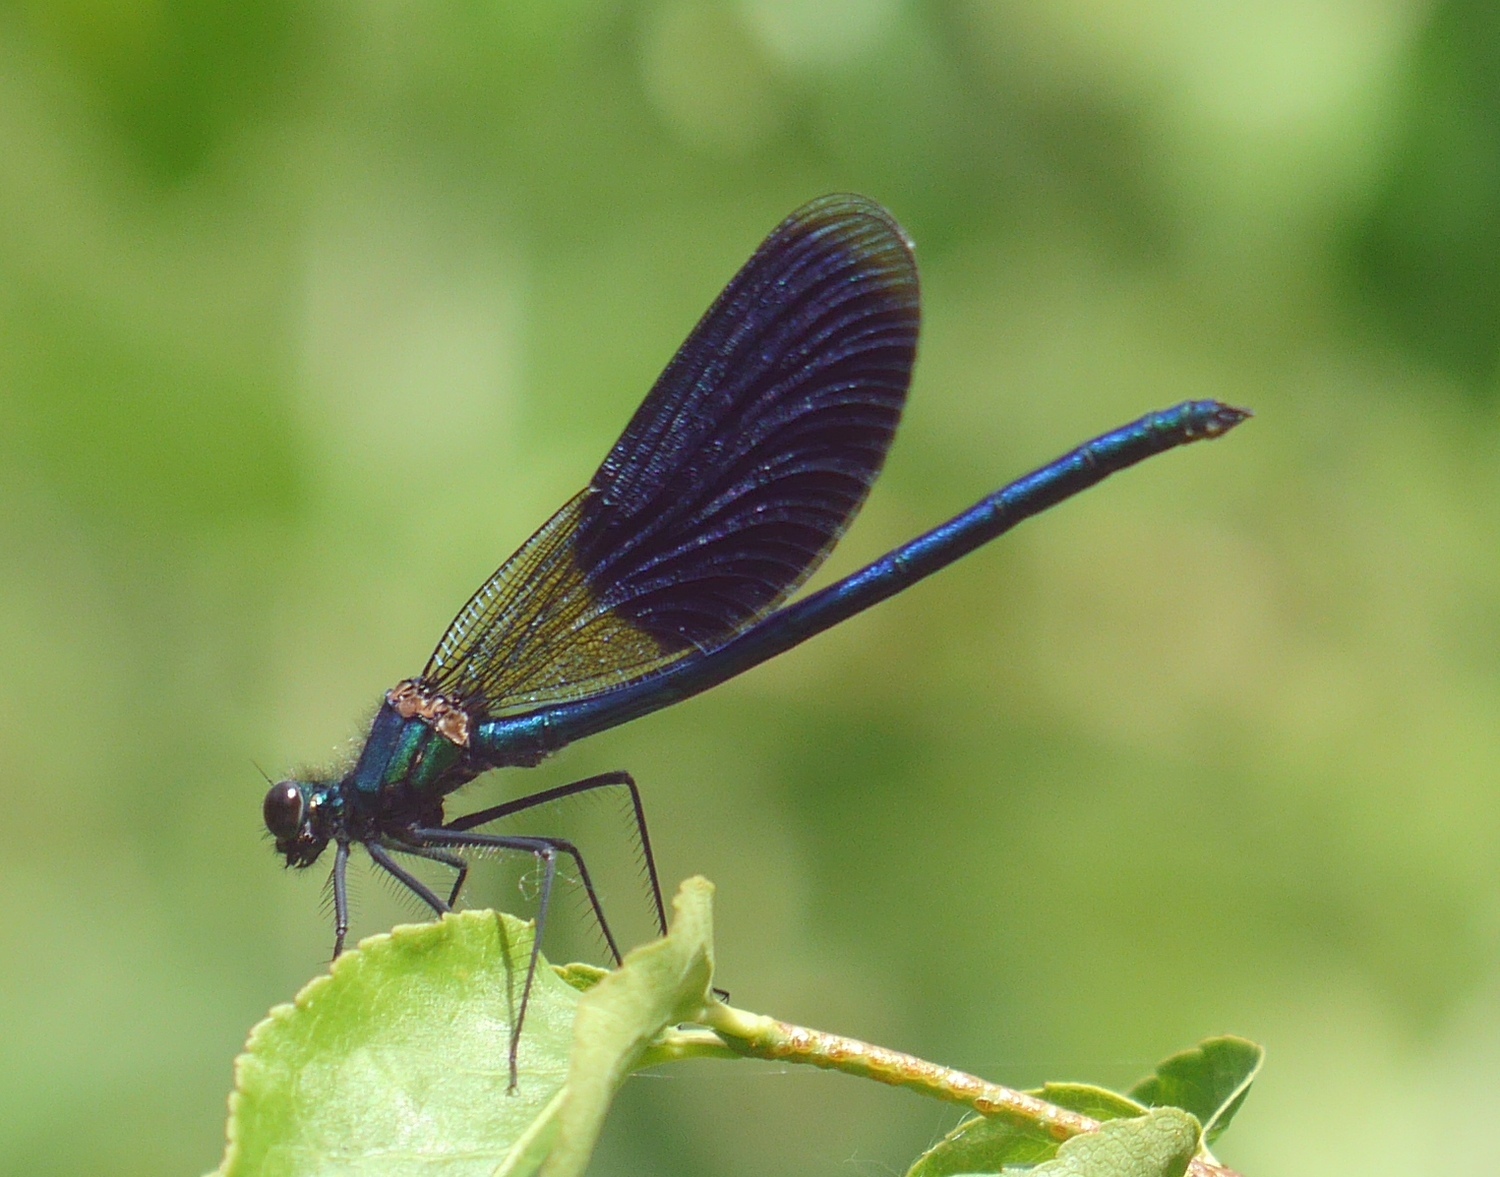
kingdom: Animalia
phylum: Arthropoda
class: Insecta
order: Odonata
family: Calopterygidae
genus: Calopteryx
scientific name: Calopteryx splendens
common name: Banded demoiselle
